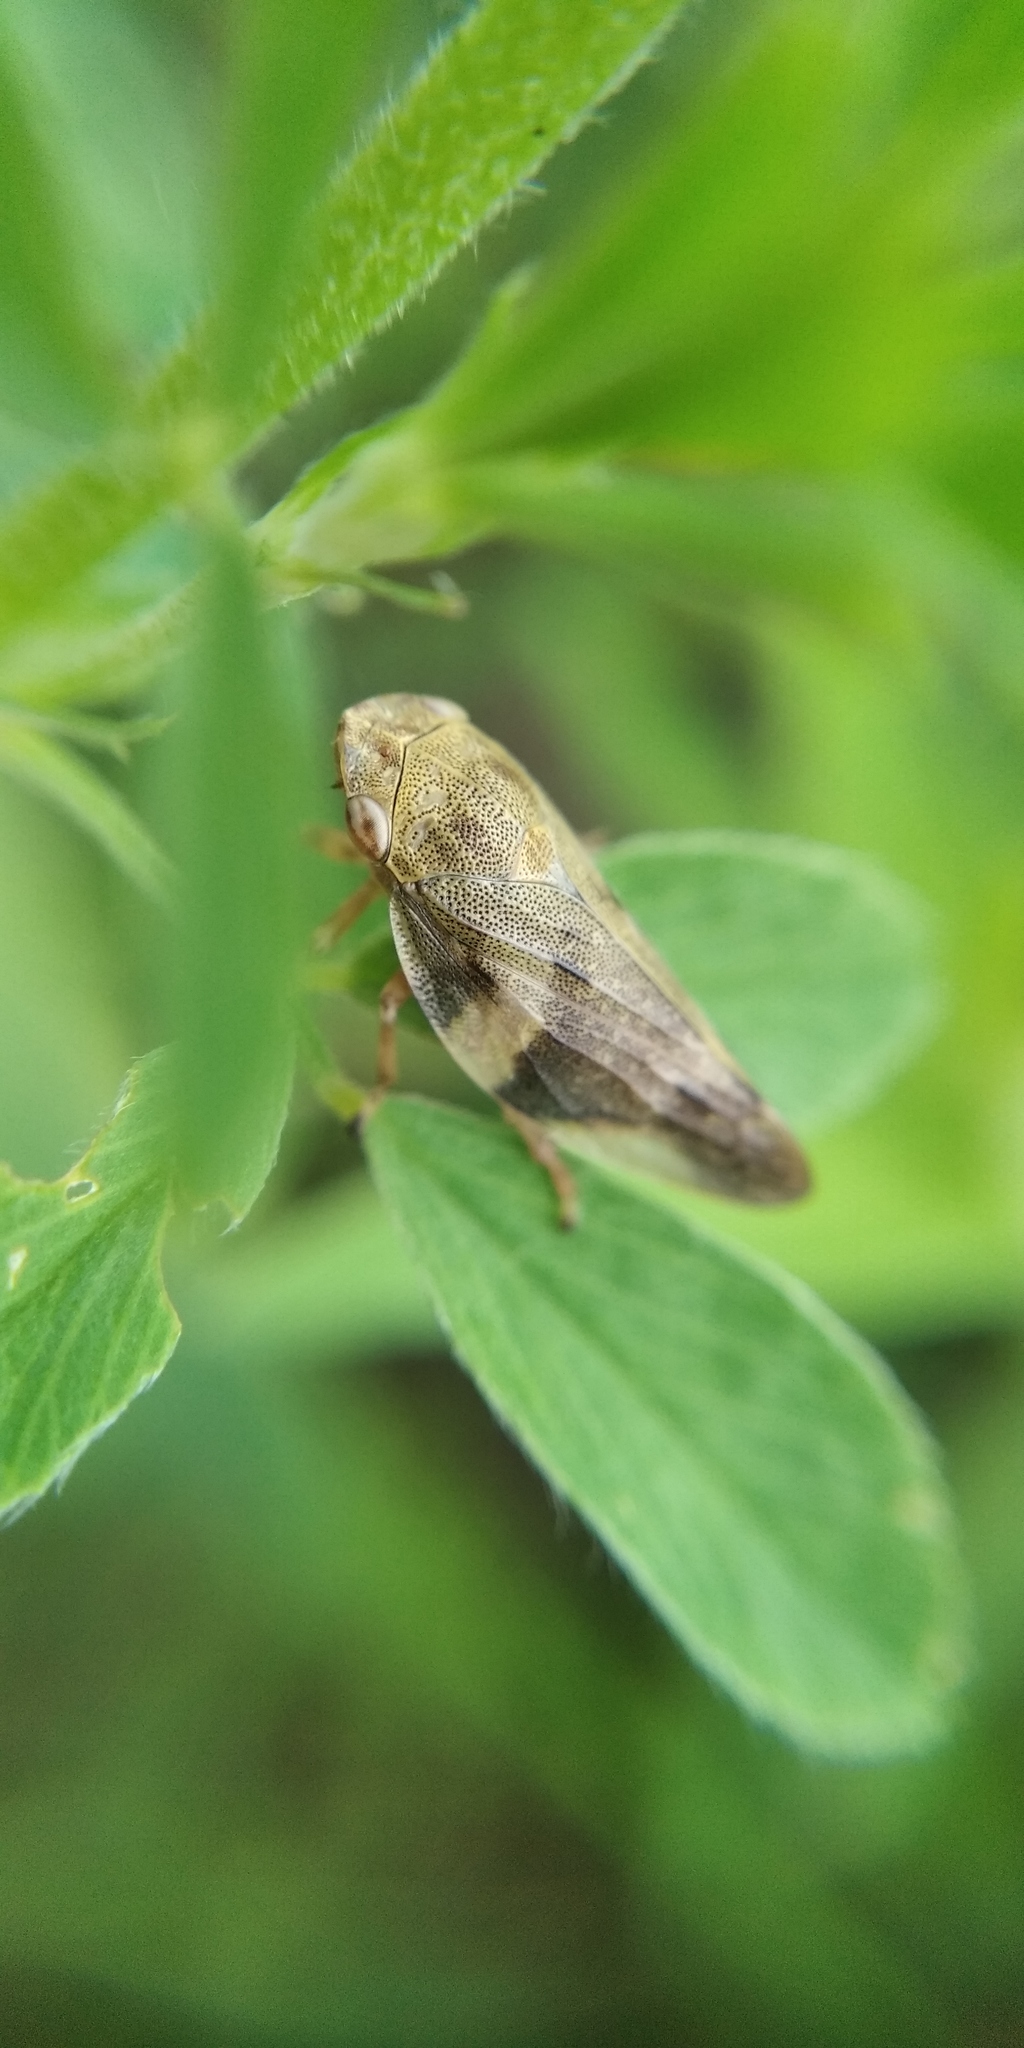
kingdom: Animalia
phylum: Arthropoda
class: Insecta
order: Hemiptera
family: Aphrophoridae
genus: Aphrophora
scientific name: Aphrophora alni
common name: European alder spittlebug
